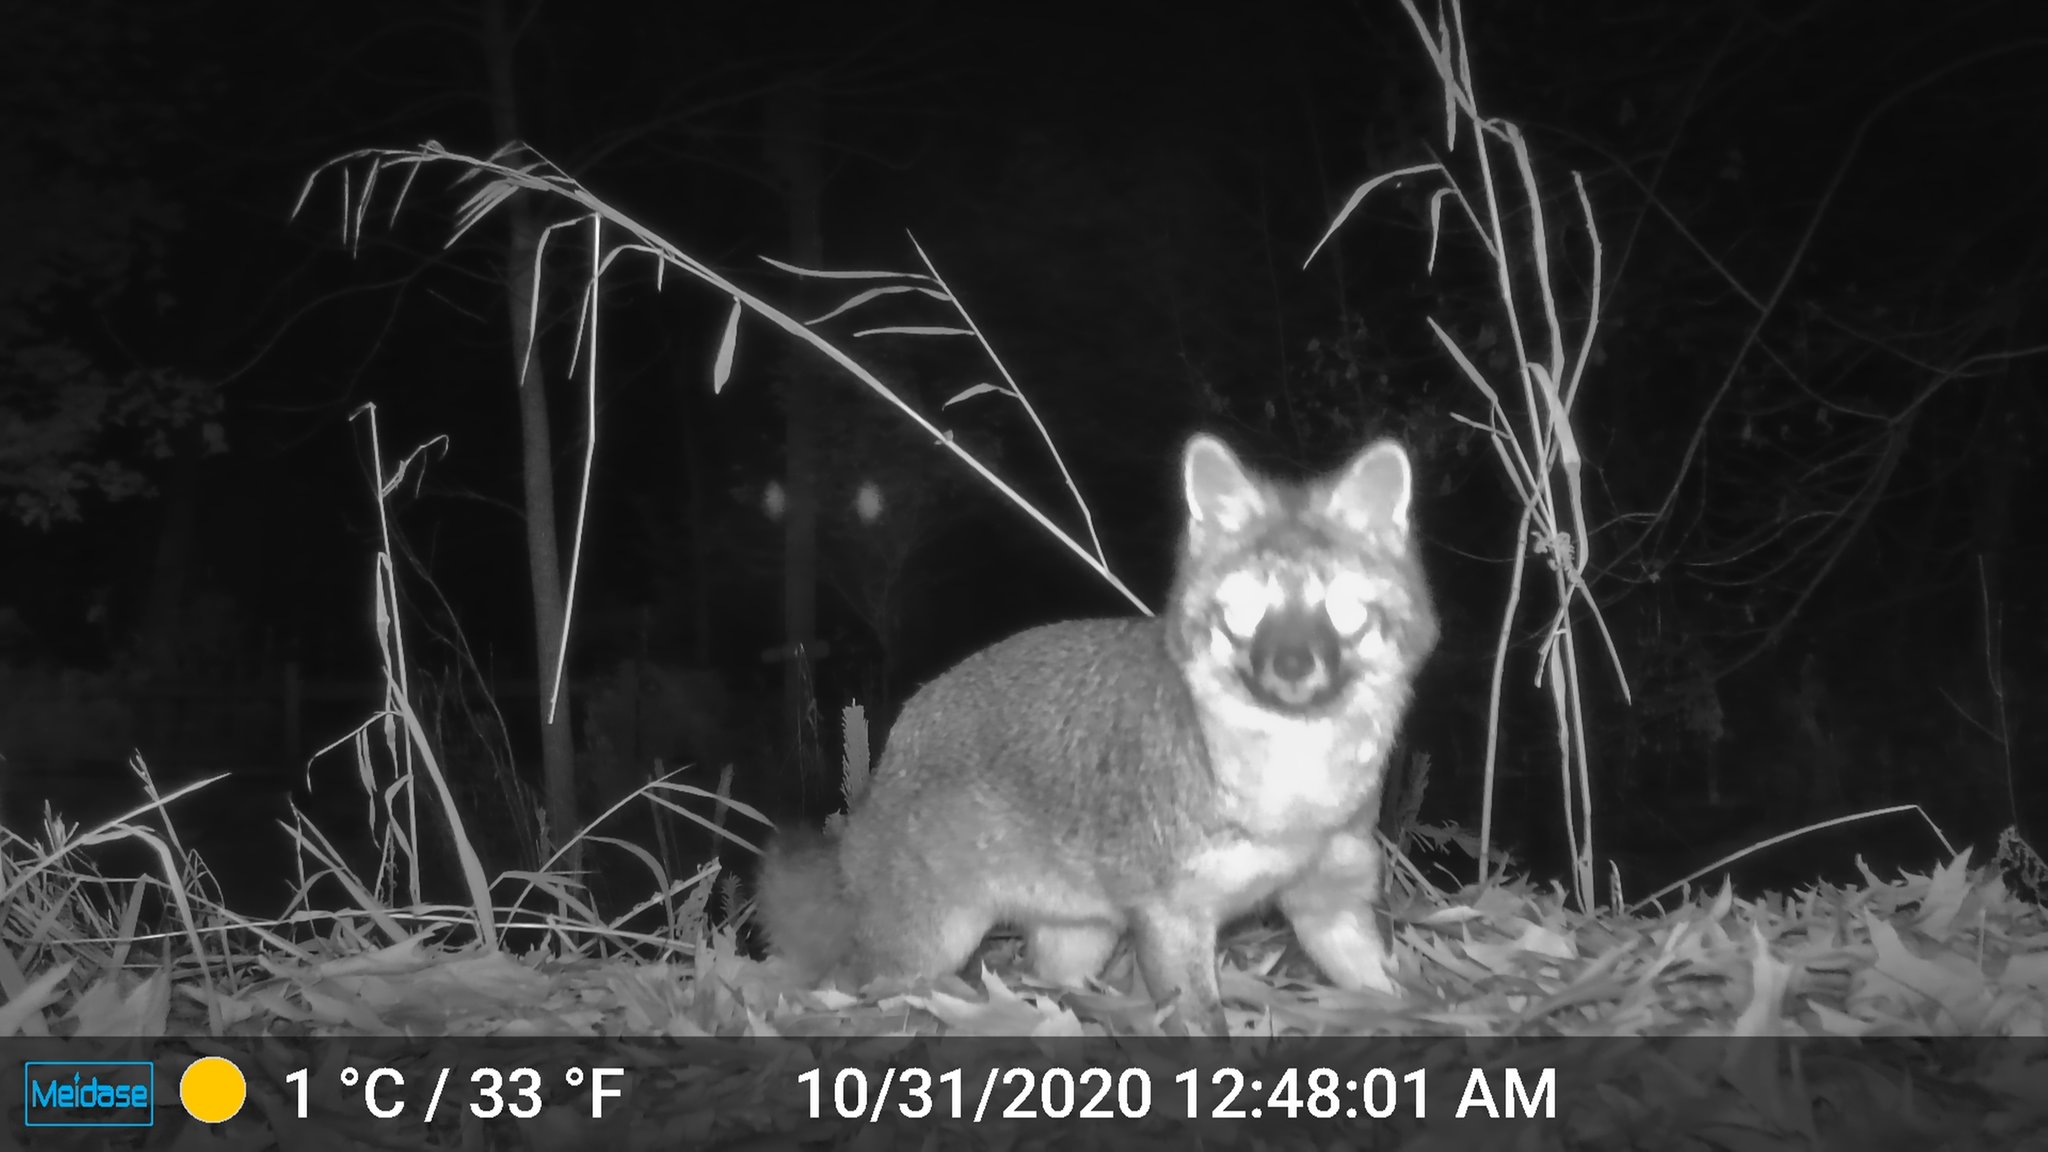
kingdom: Animalia
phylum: Chordata
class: Mammalia
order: Carnivora
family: Canidae
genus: Urocyon
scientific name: Urocyon cinereoargenteus
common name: Gray fox
